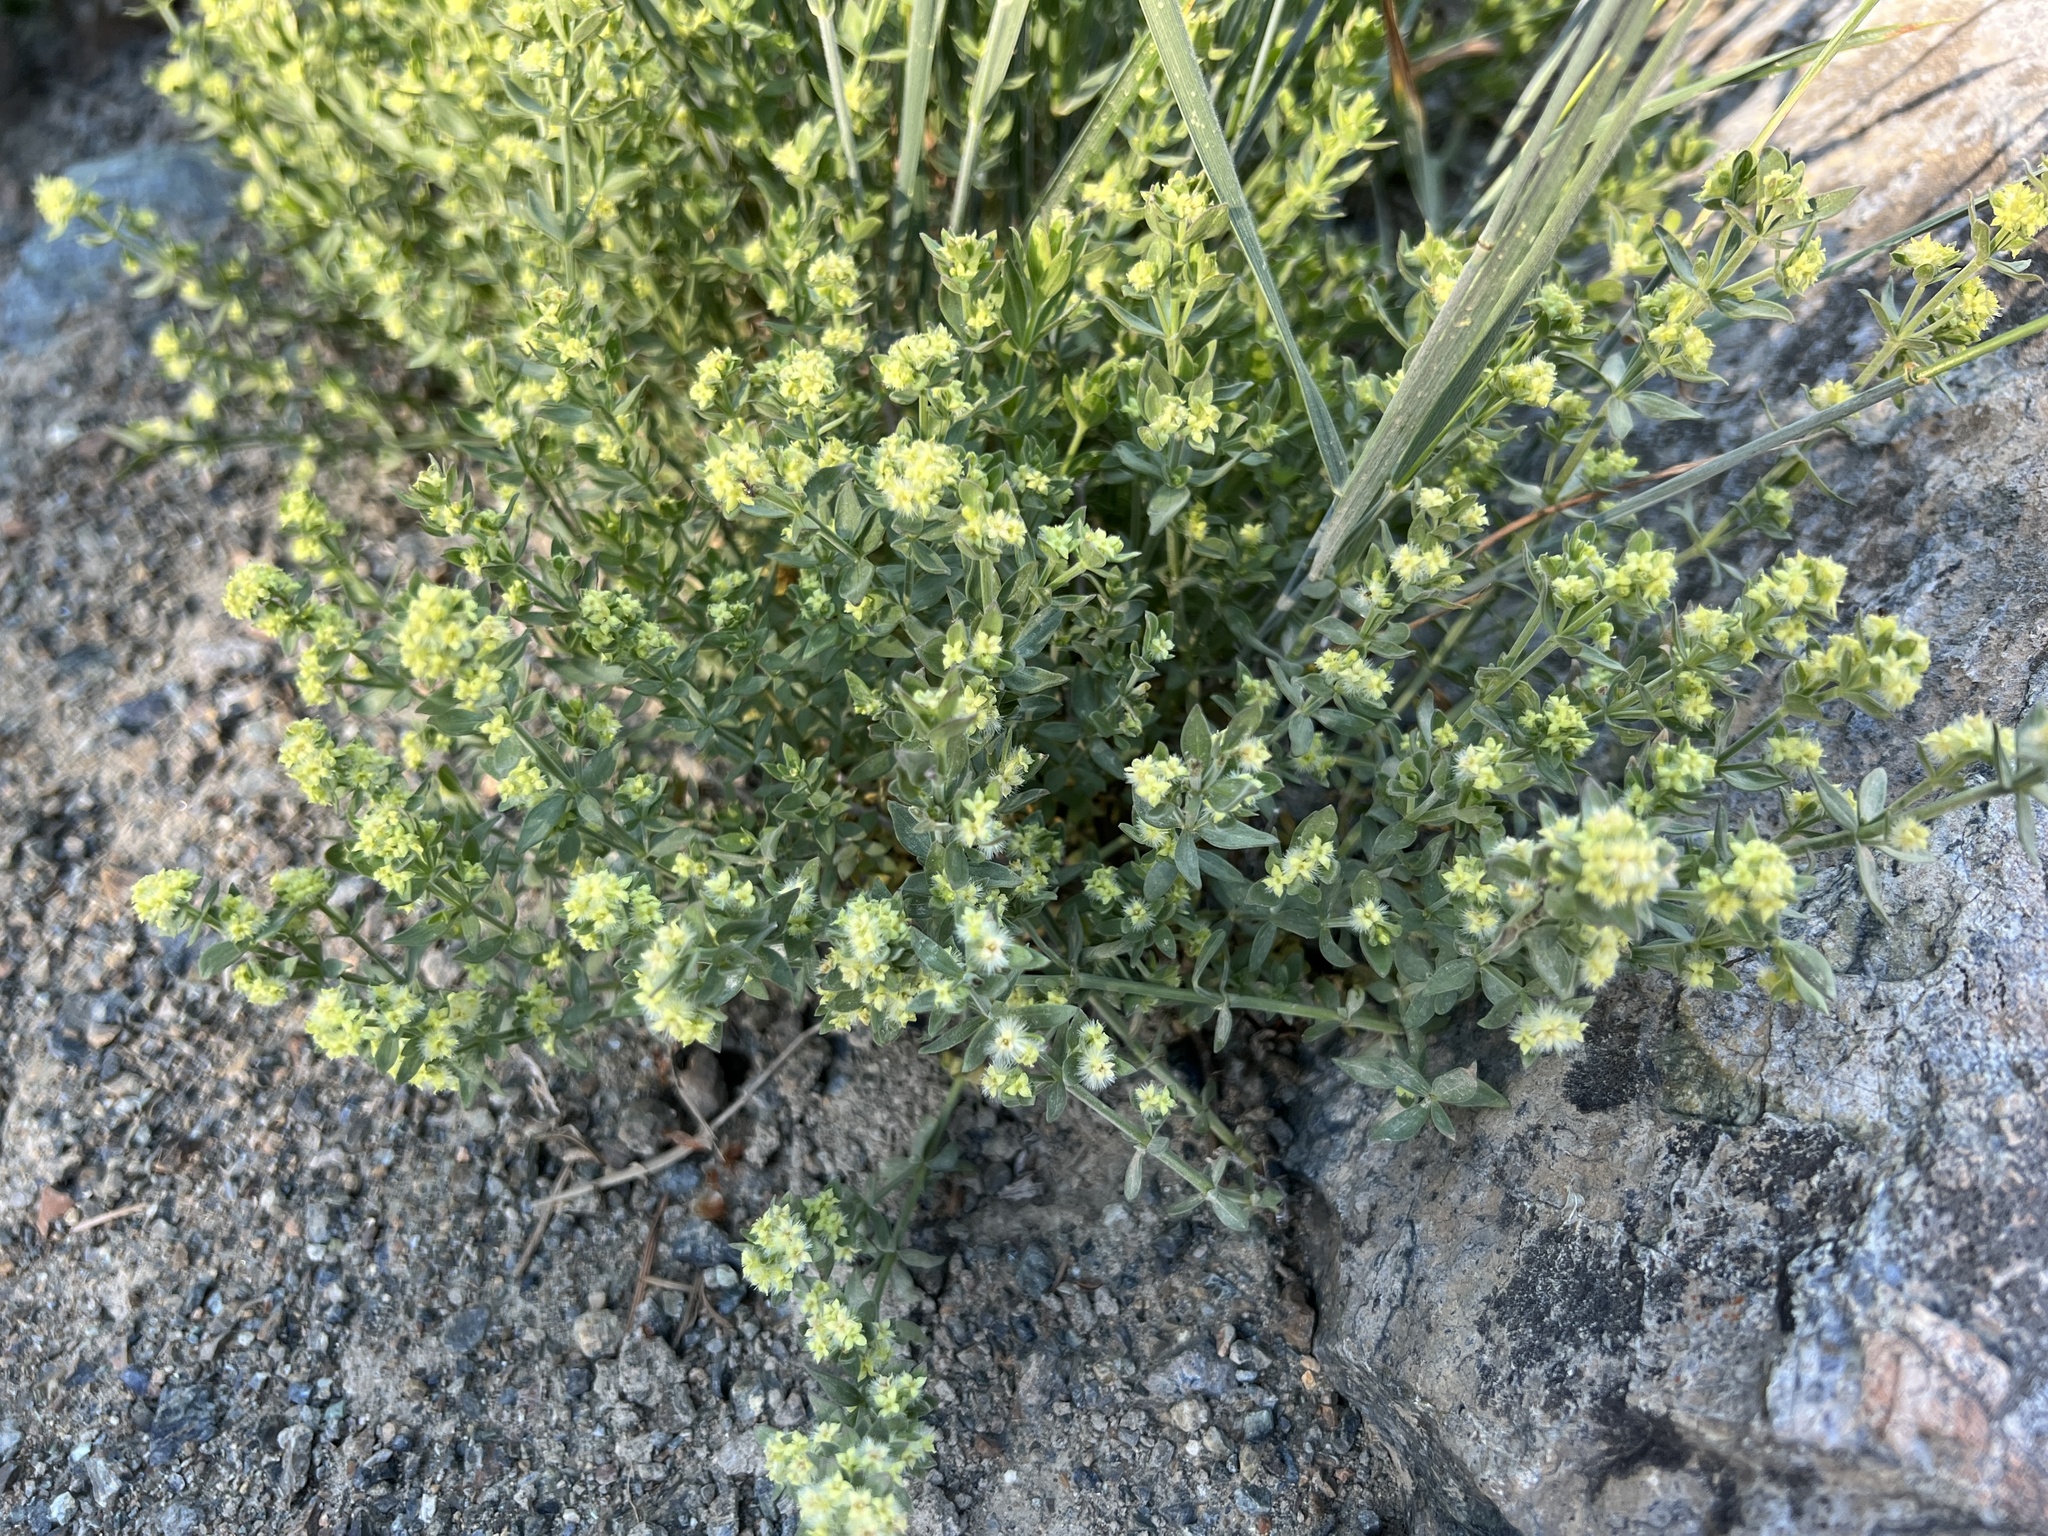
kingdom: Plantae
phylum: Tracheophyta
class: Magnoliopsida
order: Gentianales
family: Rubiaceae
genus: Galium
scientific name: Galium serpenticum
